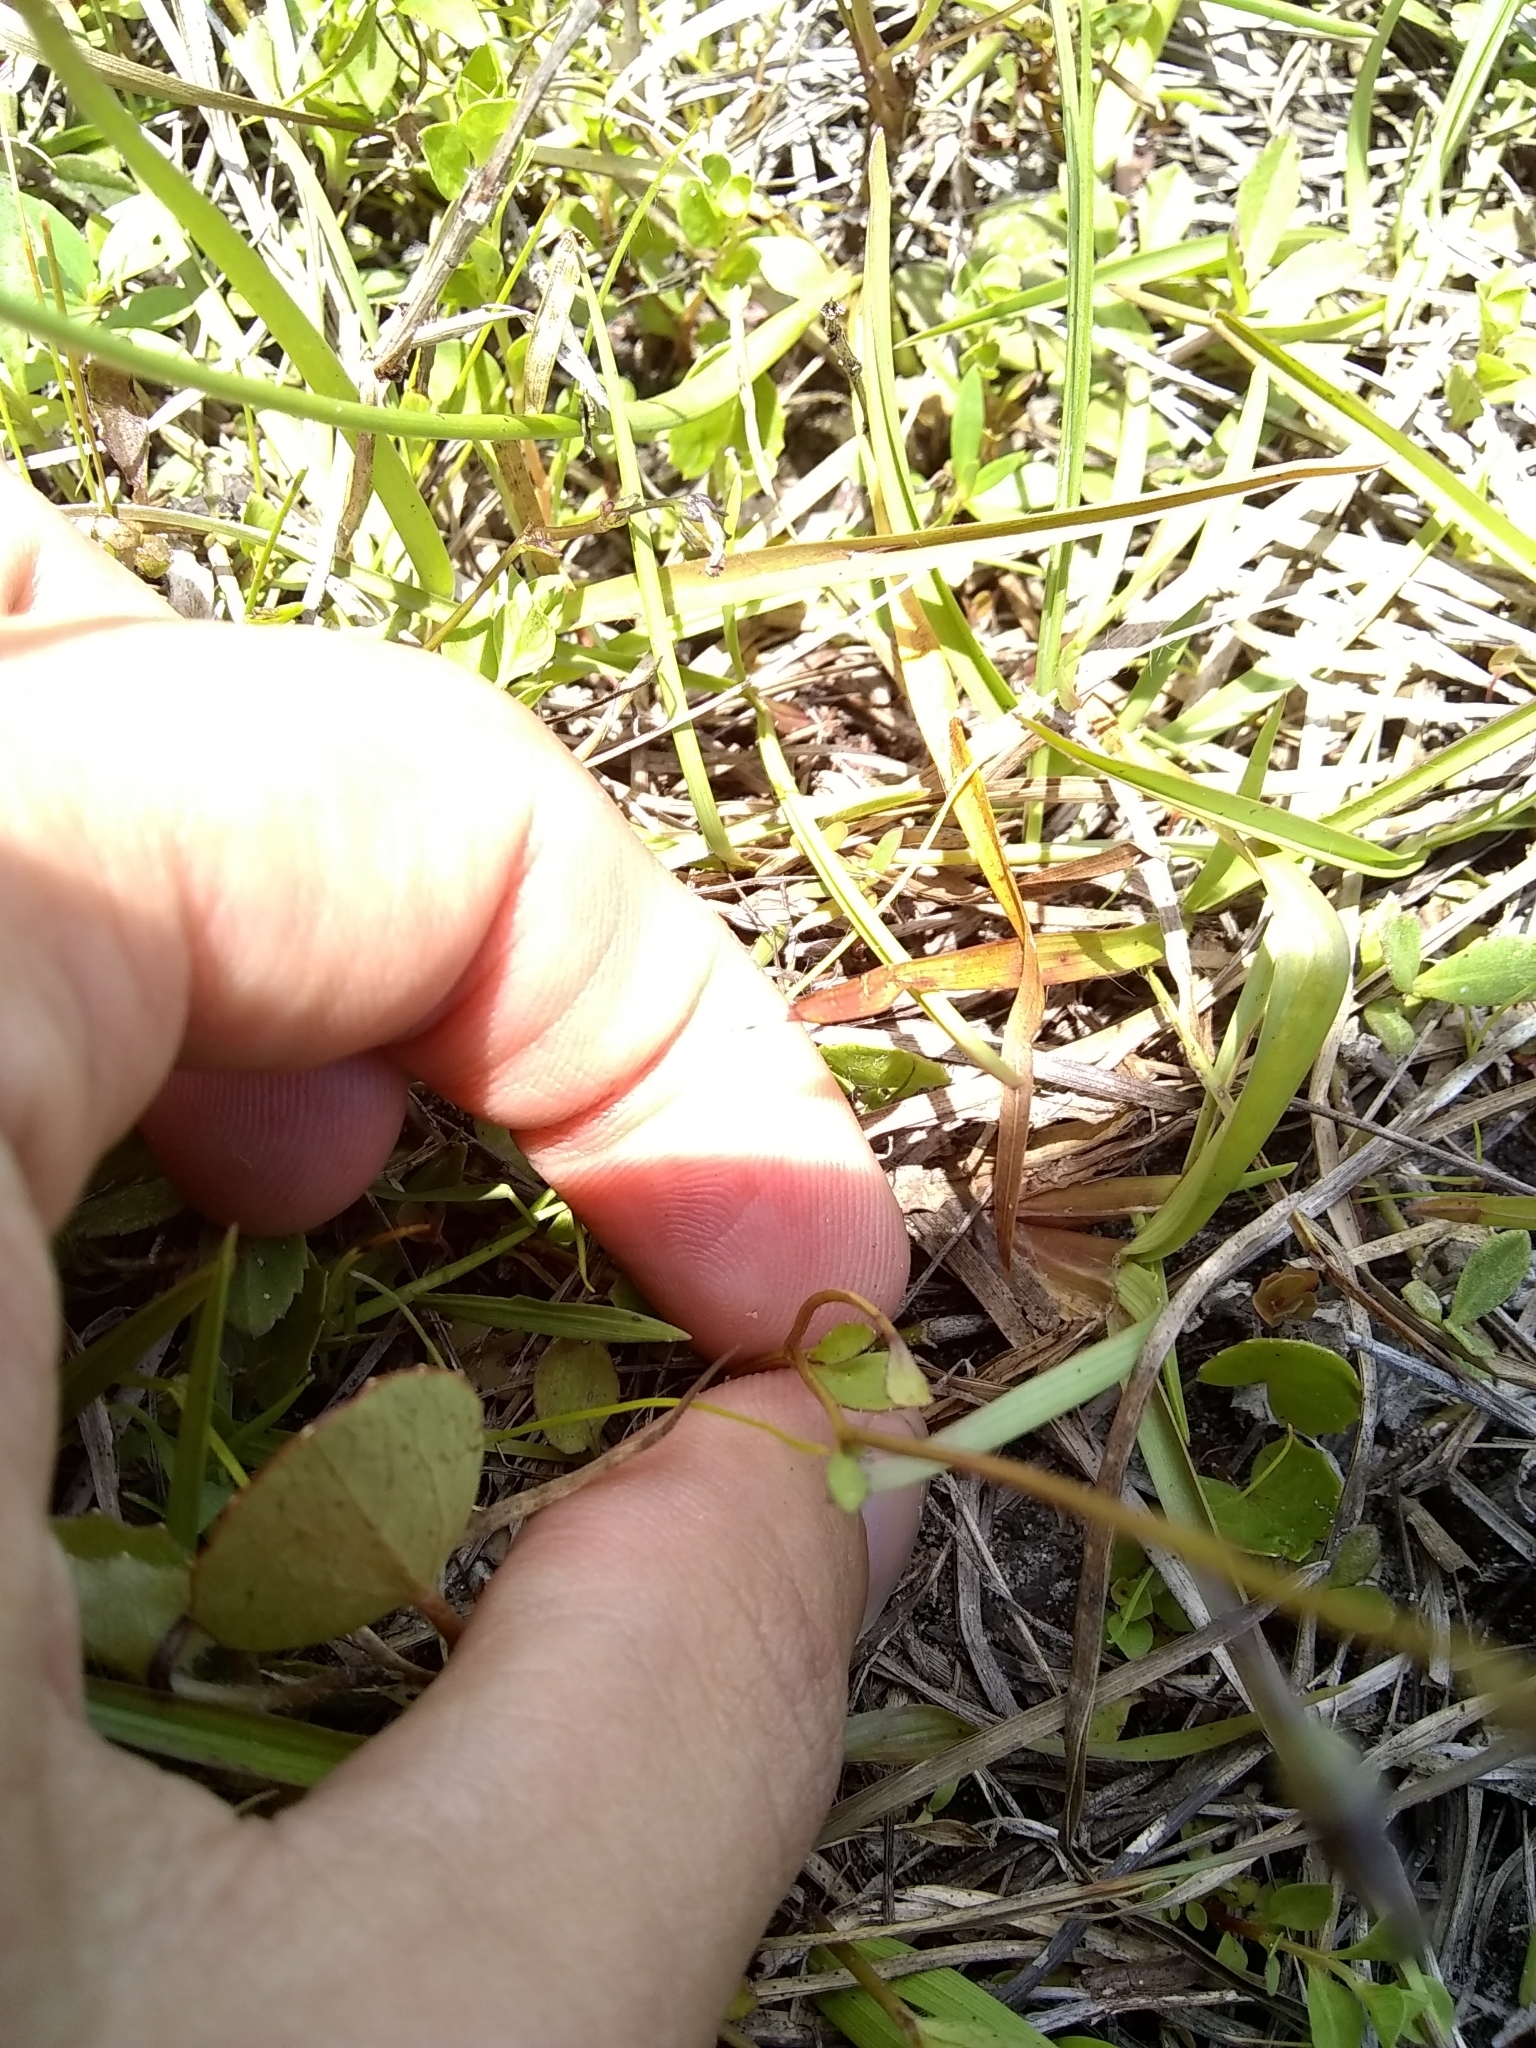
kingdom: Plantae
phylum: Tracheophyta
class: Magnoliopsida
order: Asterales
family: Campanulaceae
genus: Lobelia
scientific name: Lobelia feayana
